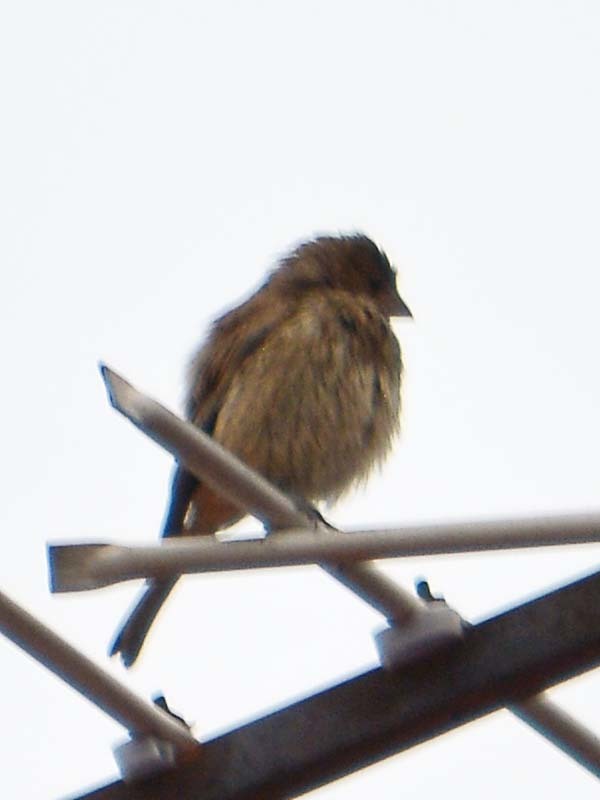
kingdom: Animalia
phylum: Chordata
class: Aves
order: Passeriformes
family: Passeridae
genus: Passer
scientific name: Passer domesticus
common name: House sparrow
